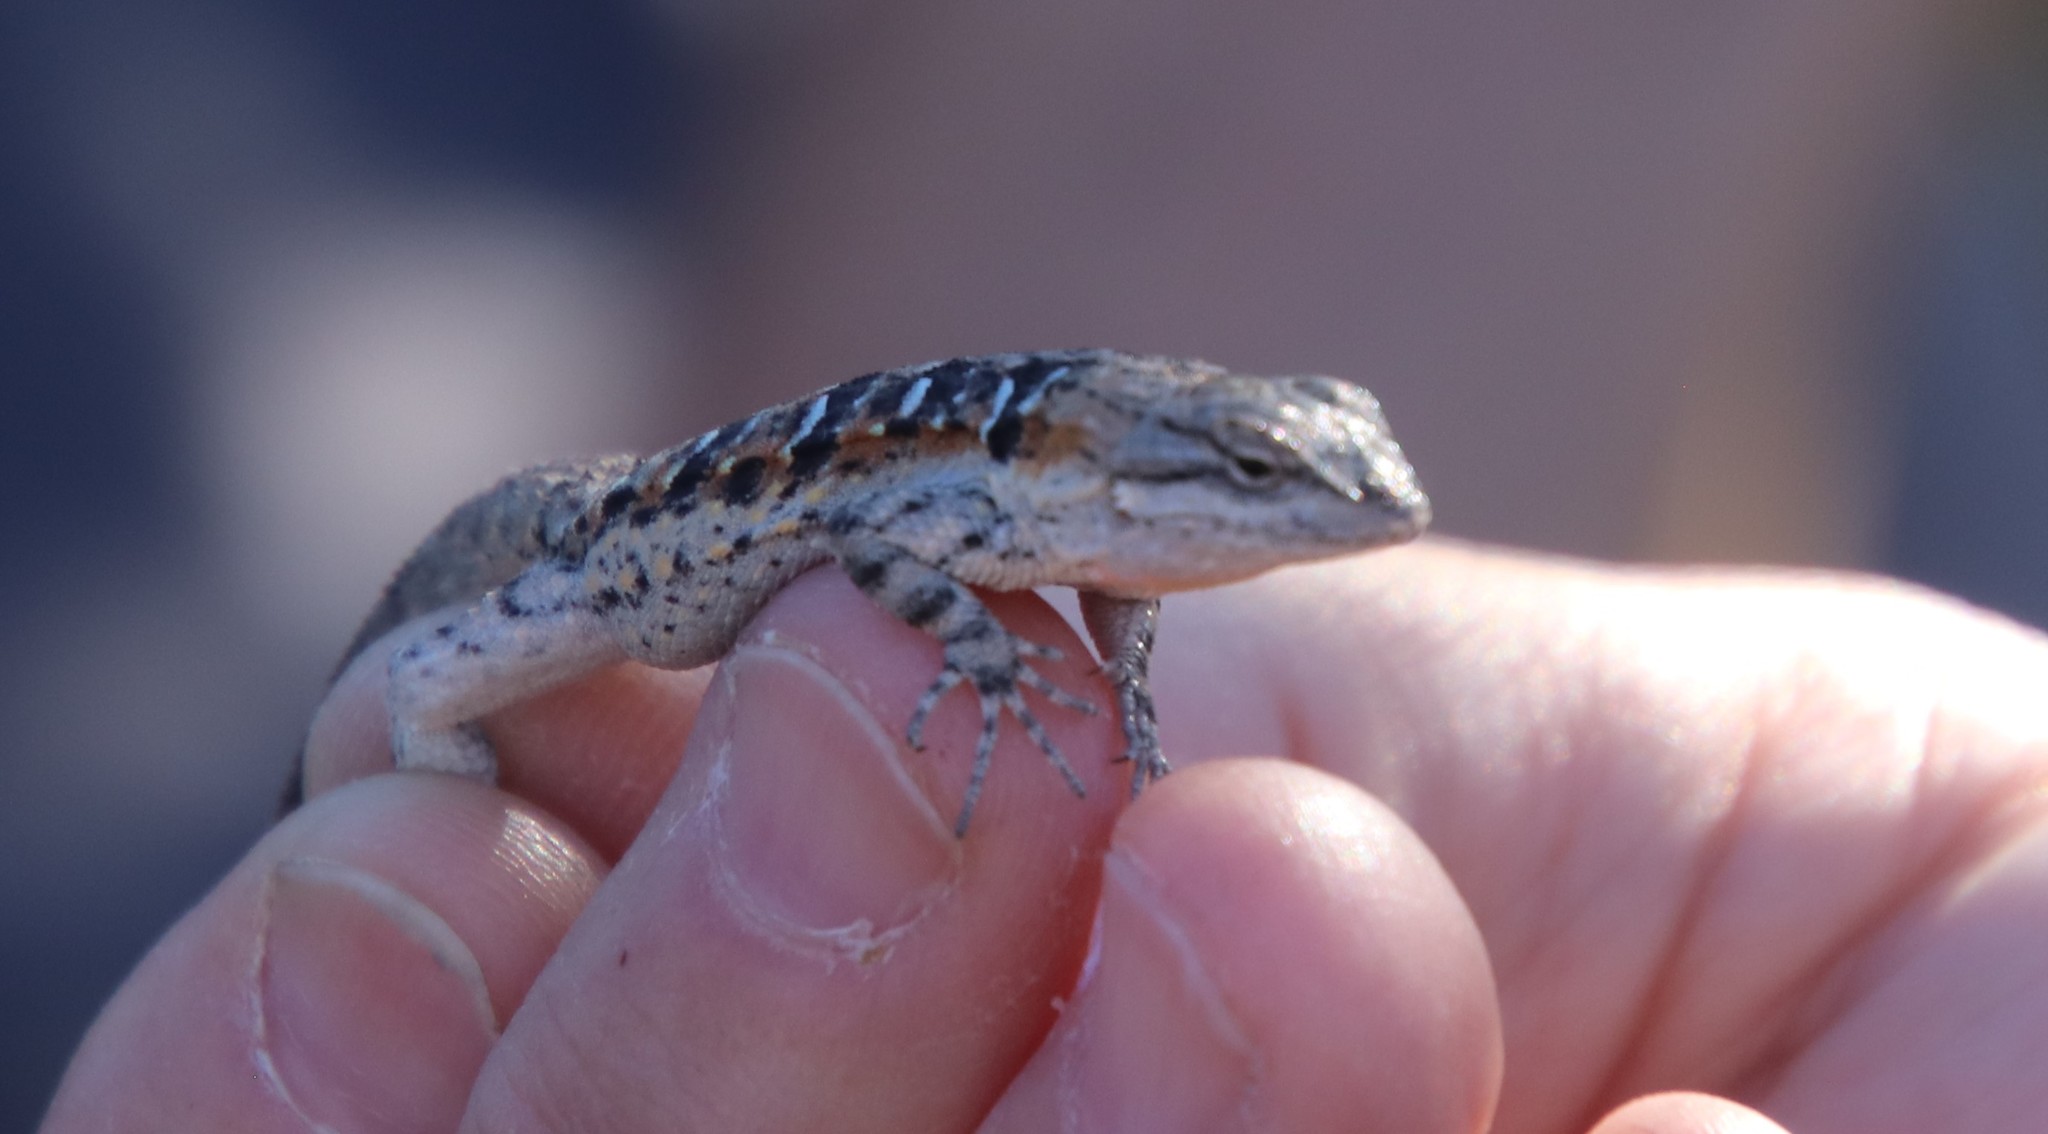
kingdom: Animalia
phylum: Chordata
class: Squamata
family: Phrynosomatidae
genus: Urosaurus
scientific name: Urosaurus nigricauda
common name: Baja california brush lizard
